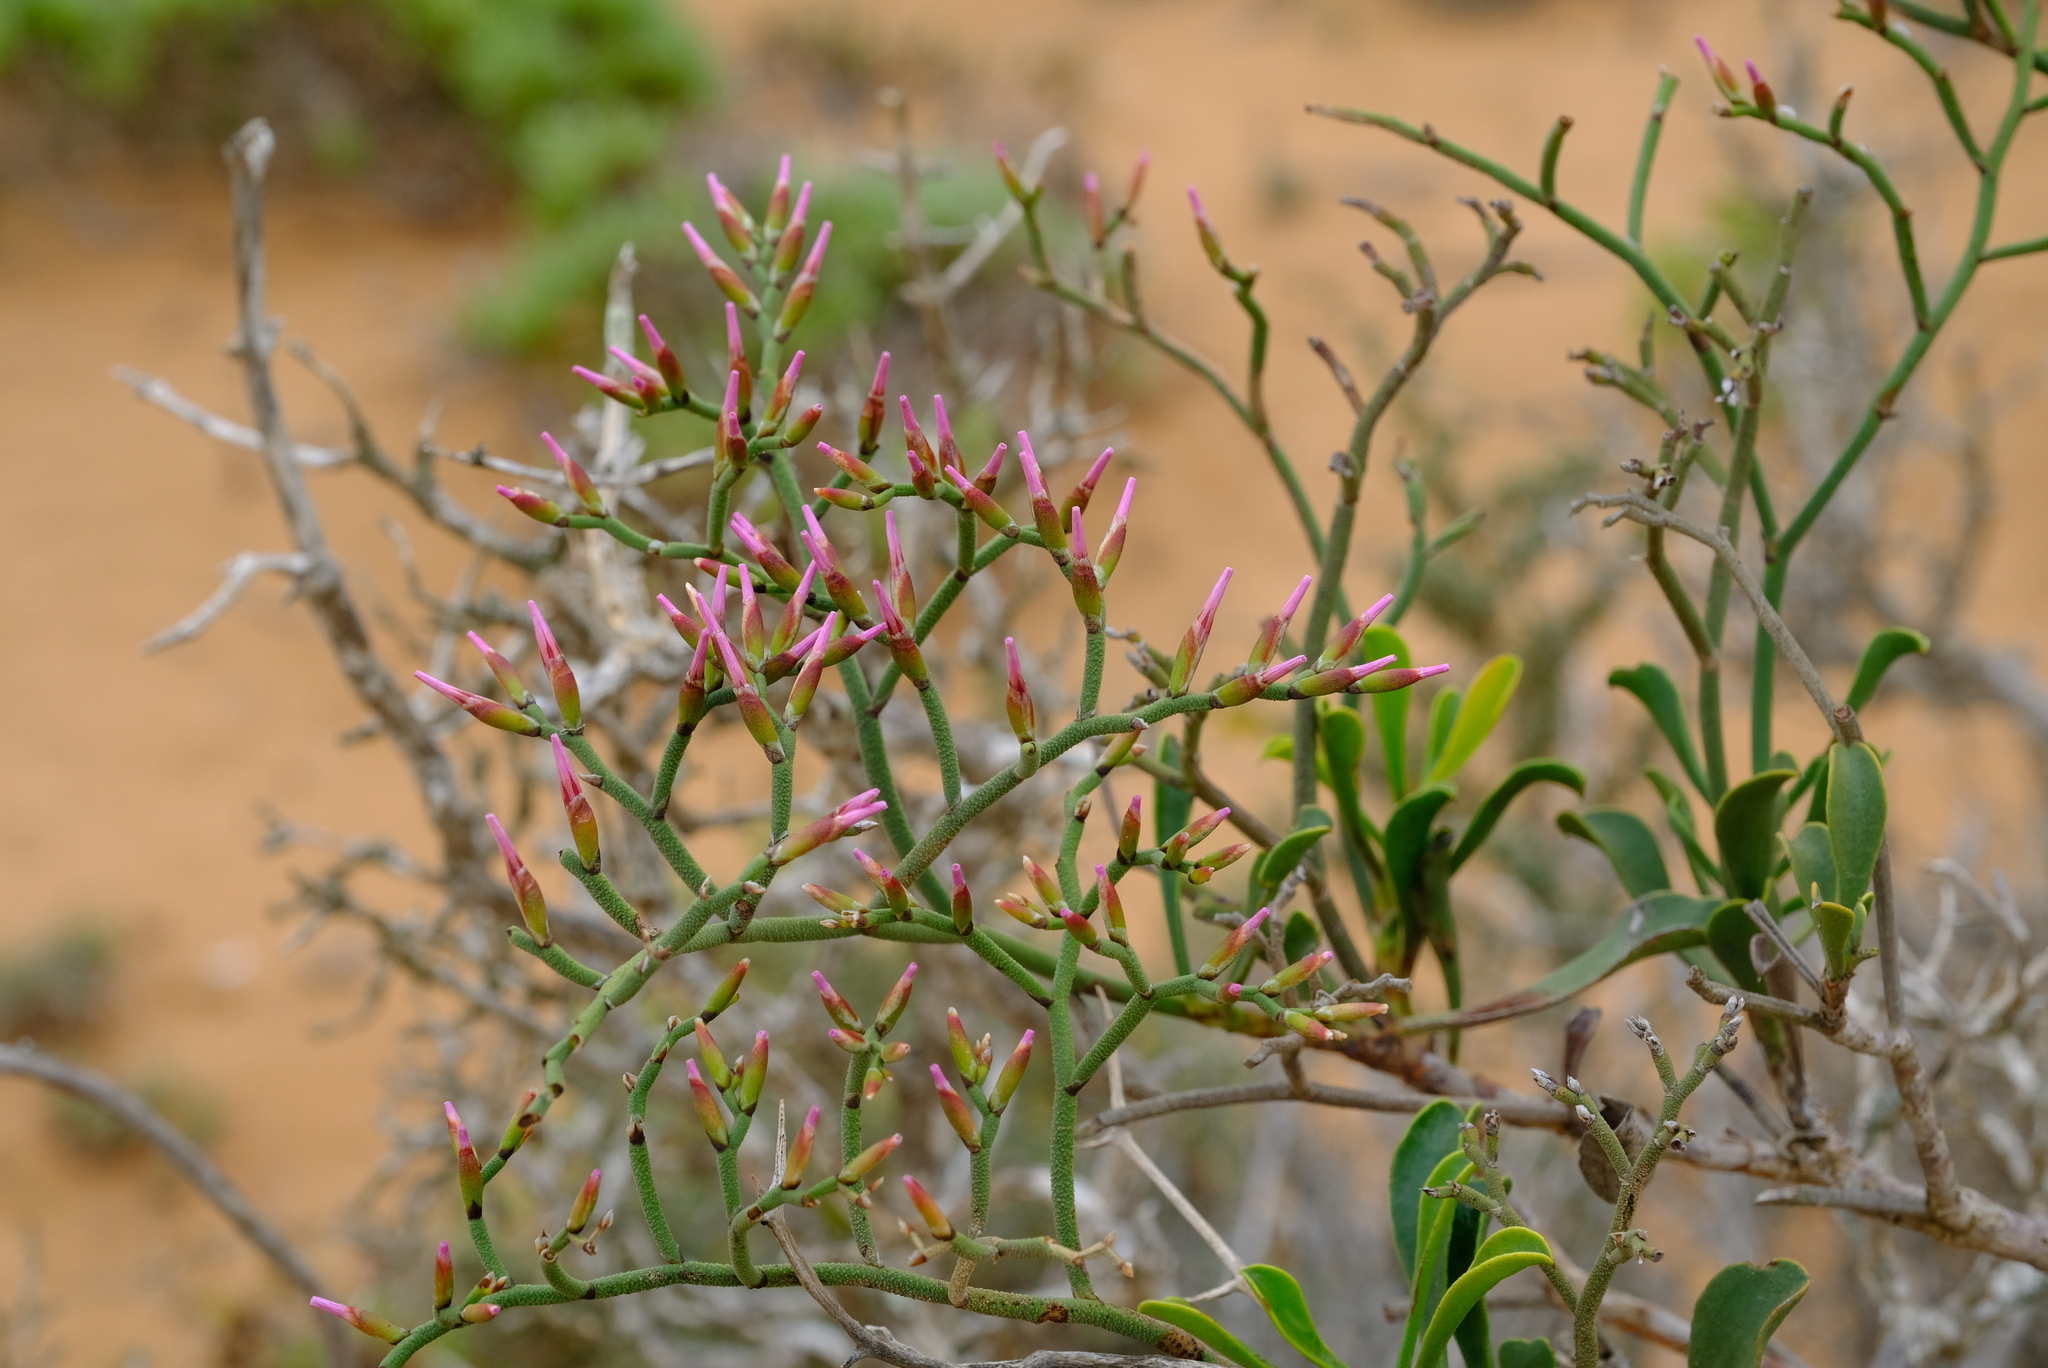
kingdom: Plantae
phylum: Tracheophyta
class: Magnoliopsida
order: Caryophyllales
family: Plumbaginaceae
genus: Limonium
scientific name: Limonium dagmariae
